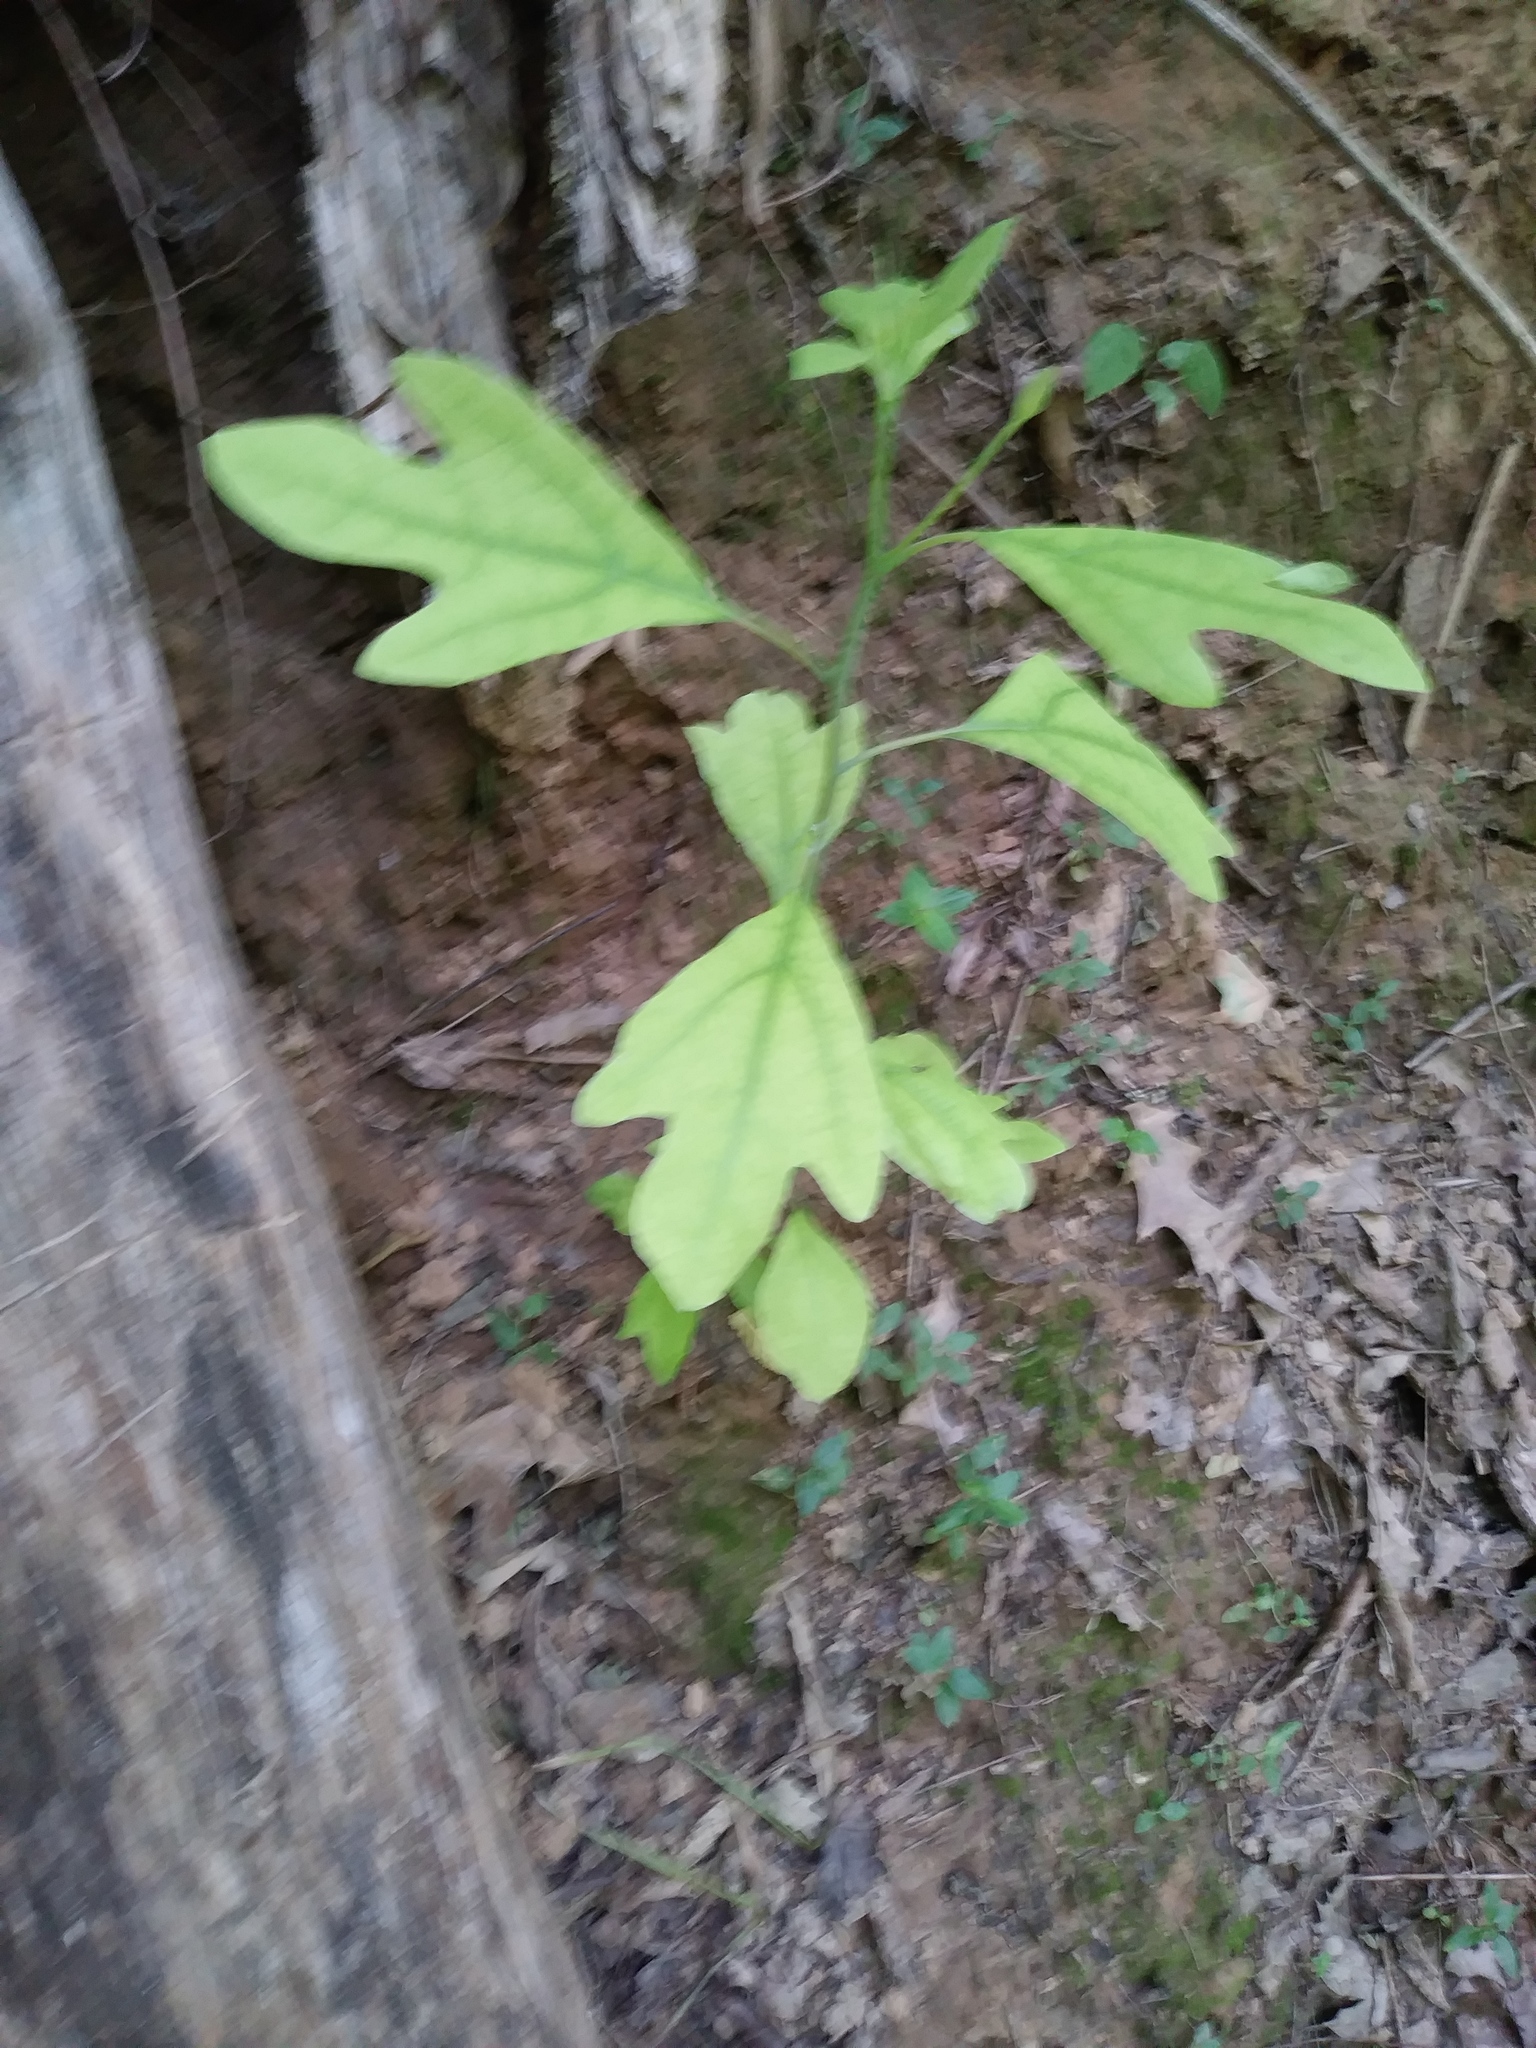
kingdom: Plantae
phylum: Tracheophyta
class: Magnoliopsida
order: Laurales
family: Lauraceae
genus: Sassafras
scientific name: Sassafras albidum
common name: Sassafras
